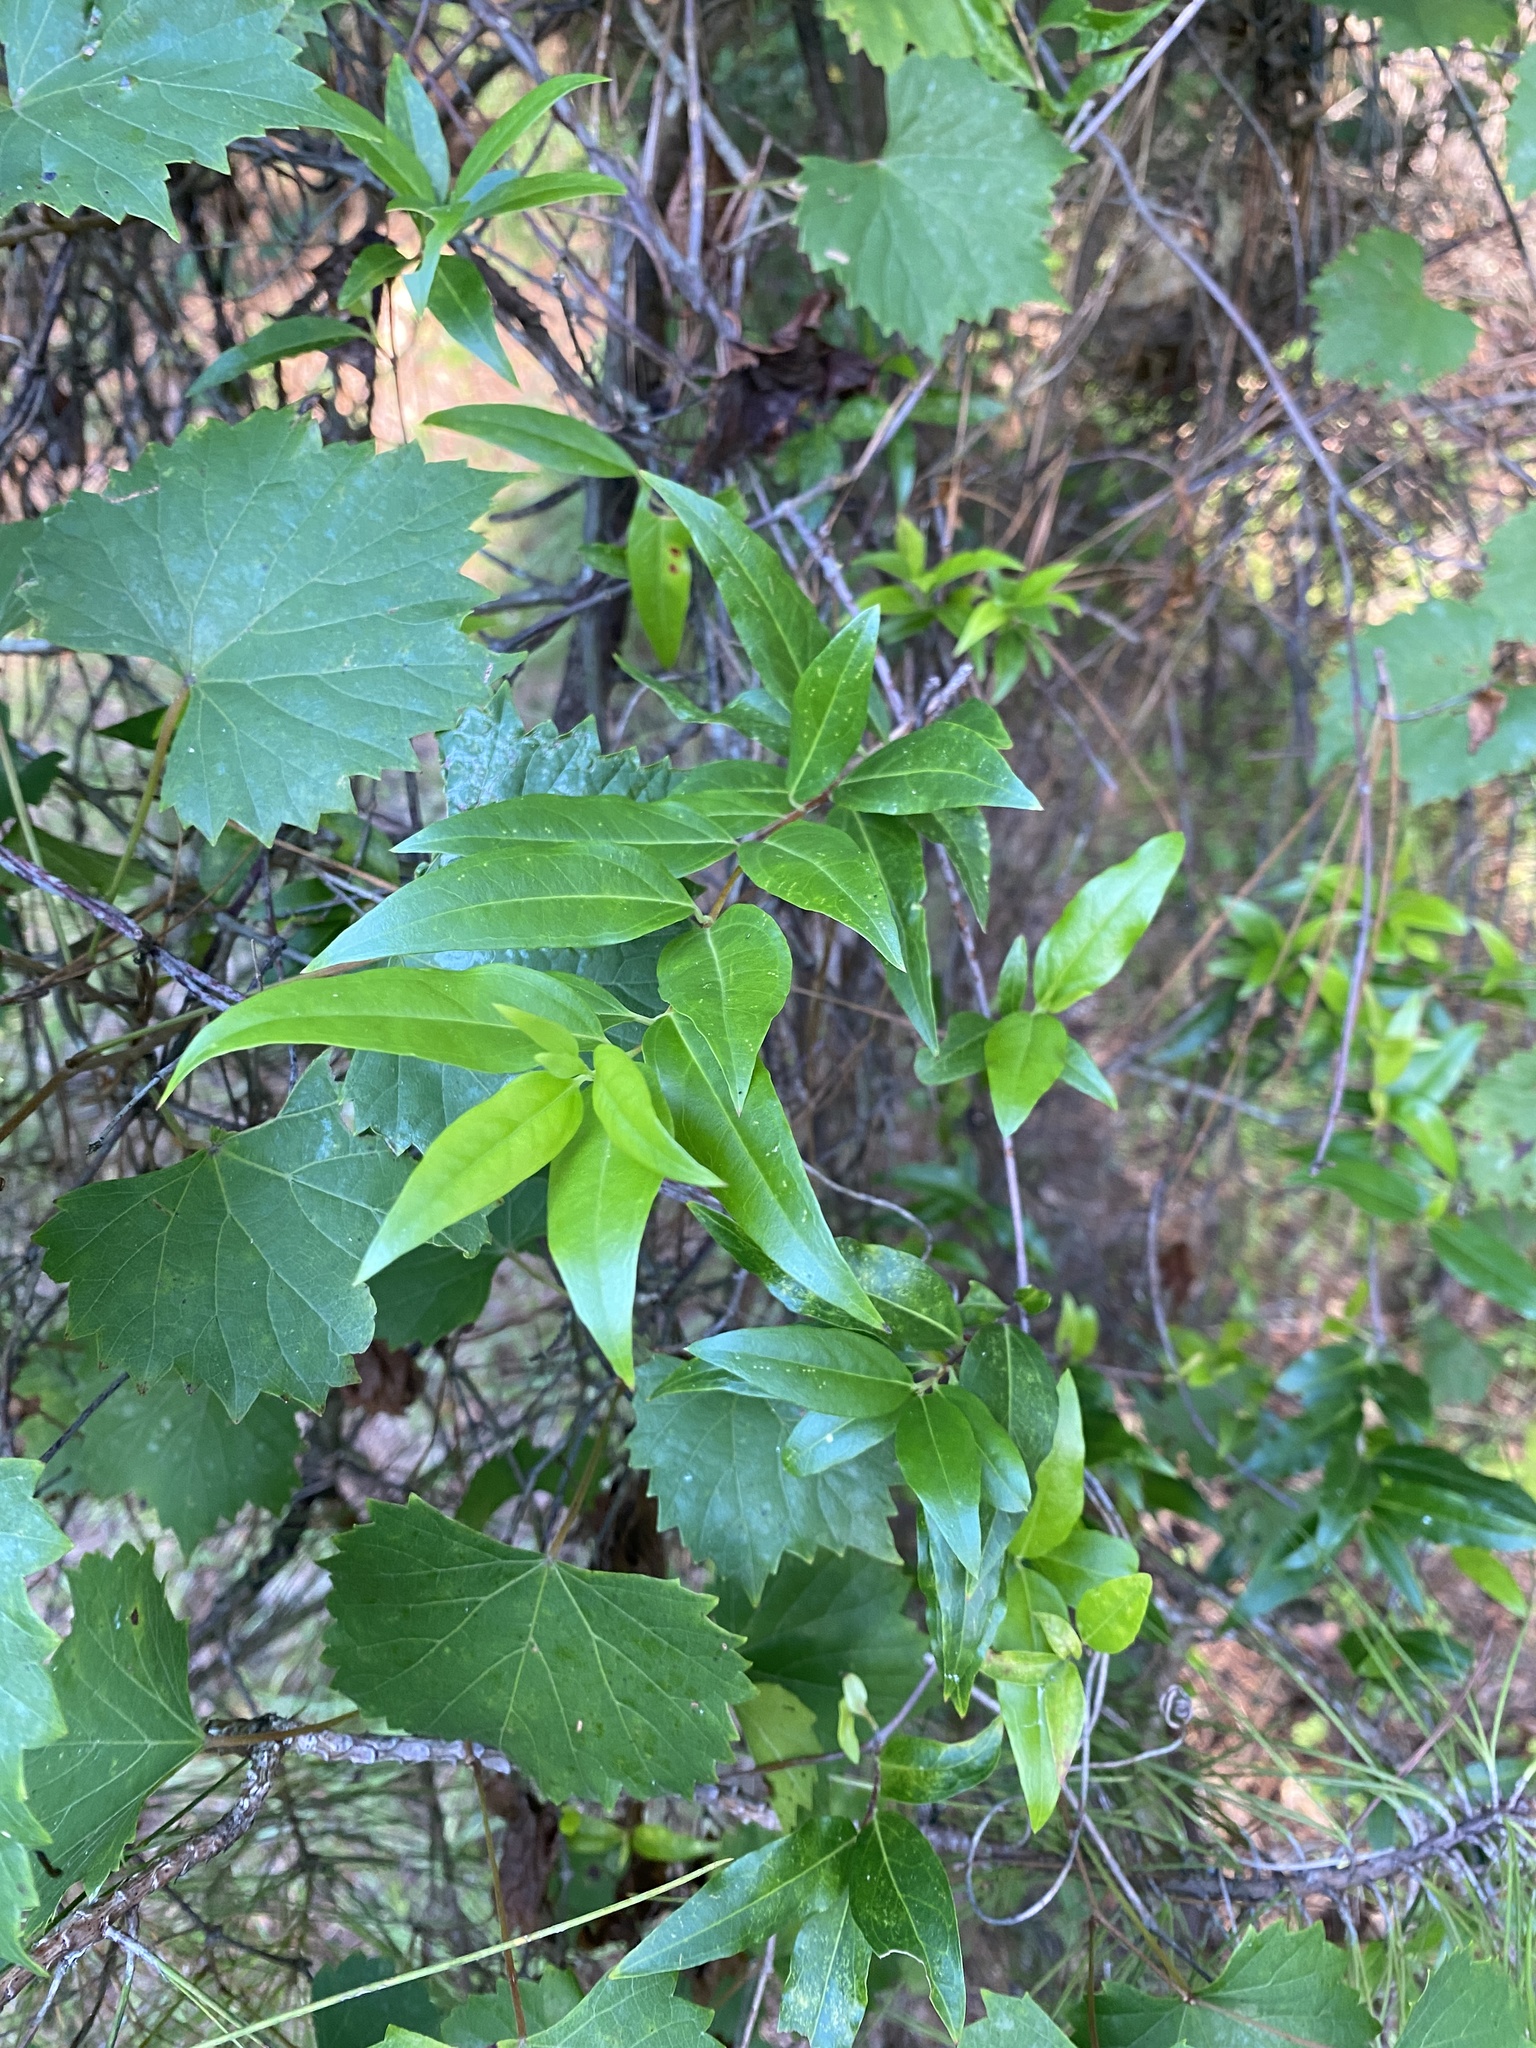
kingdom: Plantae
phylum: Tracheophyta
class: Magnoliopsida
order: Gentianales
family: Gelsemiaceae
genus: Gelsemium
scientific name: Gelsemium sempervirens
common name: Carolina-jasmine
